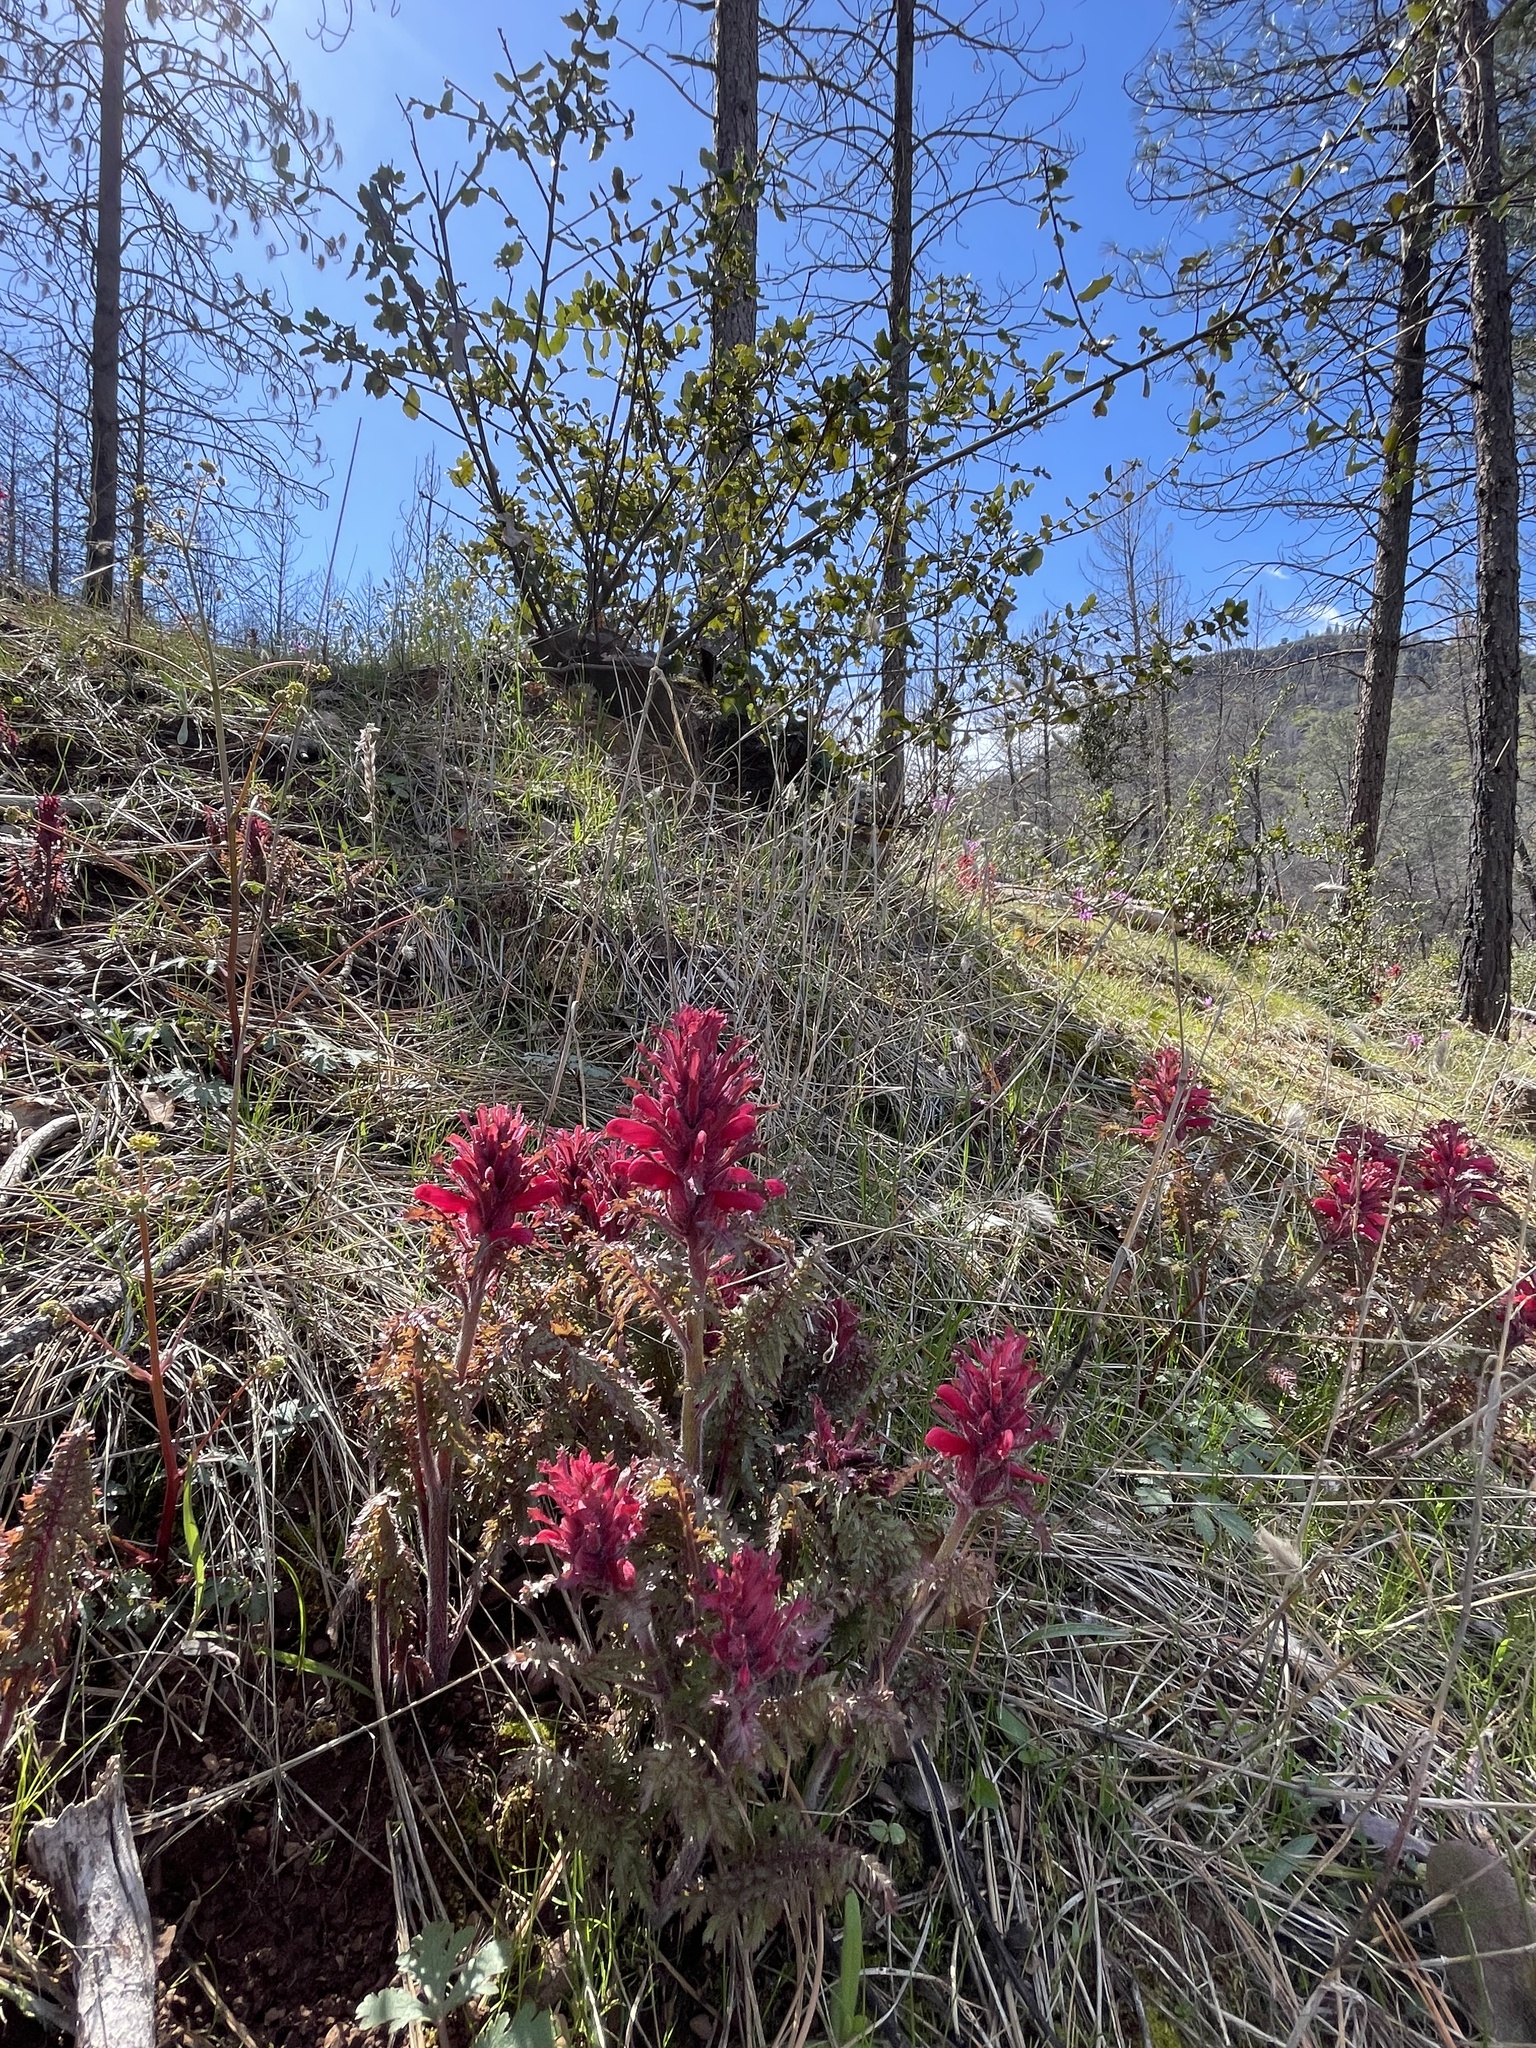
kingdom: Plantae
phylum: Tracheophyta
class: Magnoliopsida
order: Lamiales
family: Orobanchaceae
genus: Pedicularis
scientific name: Pedicularis densiflora
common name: Indian warrior
